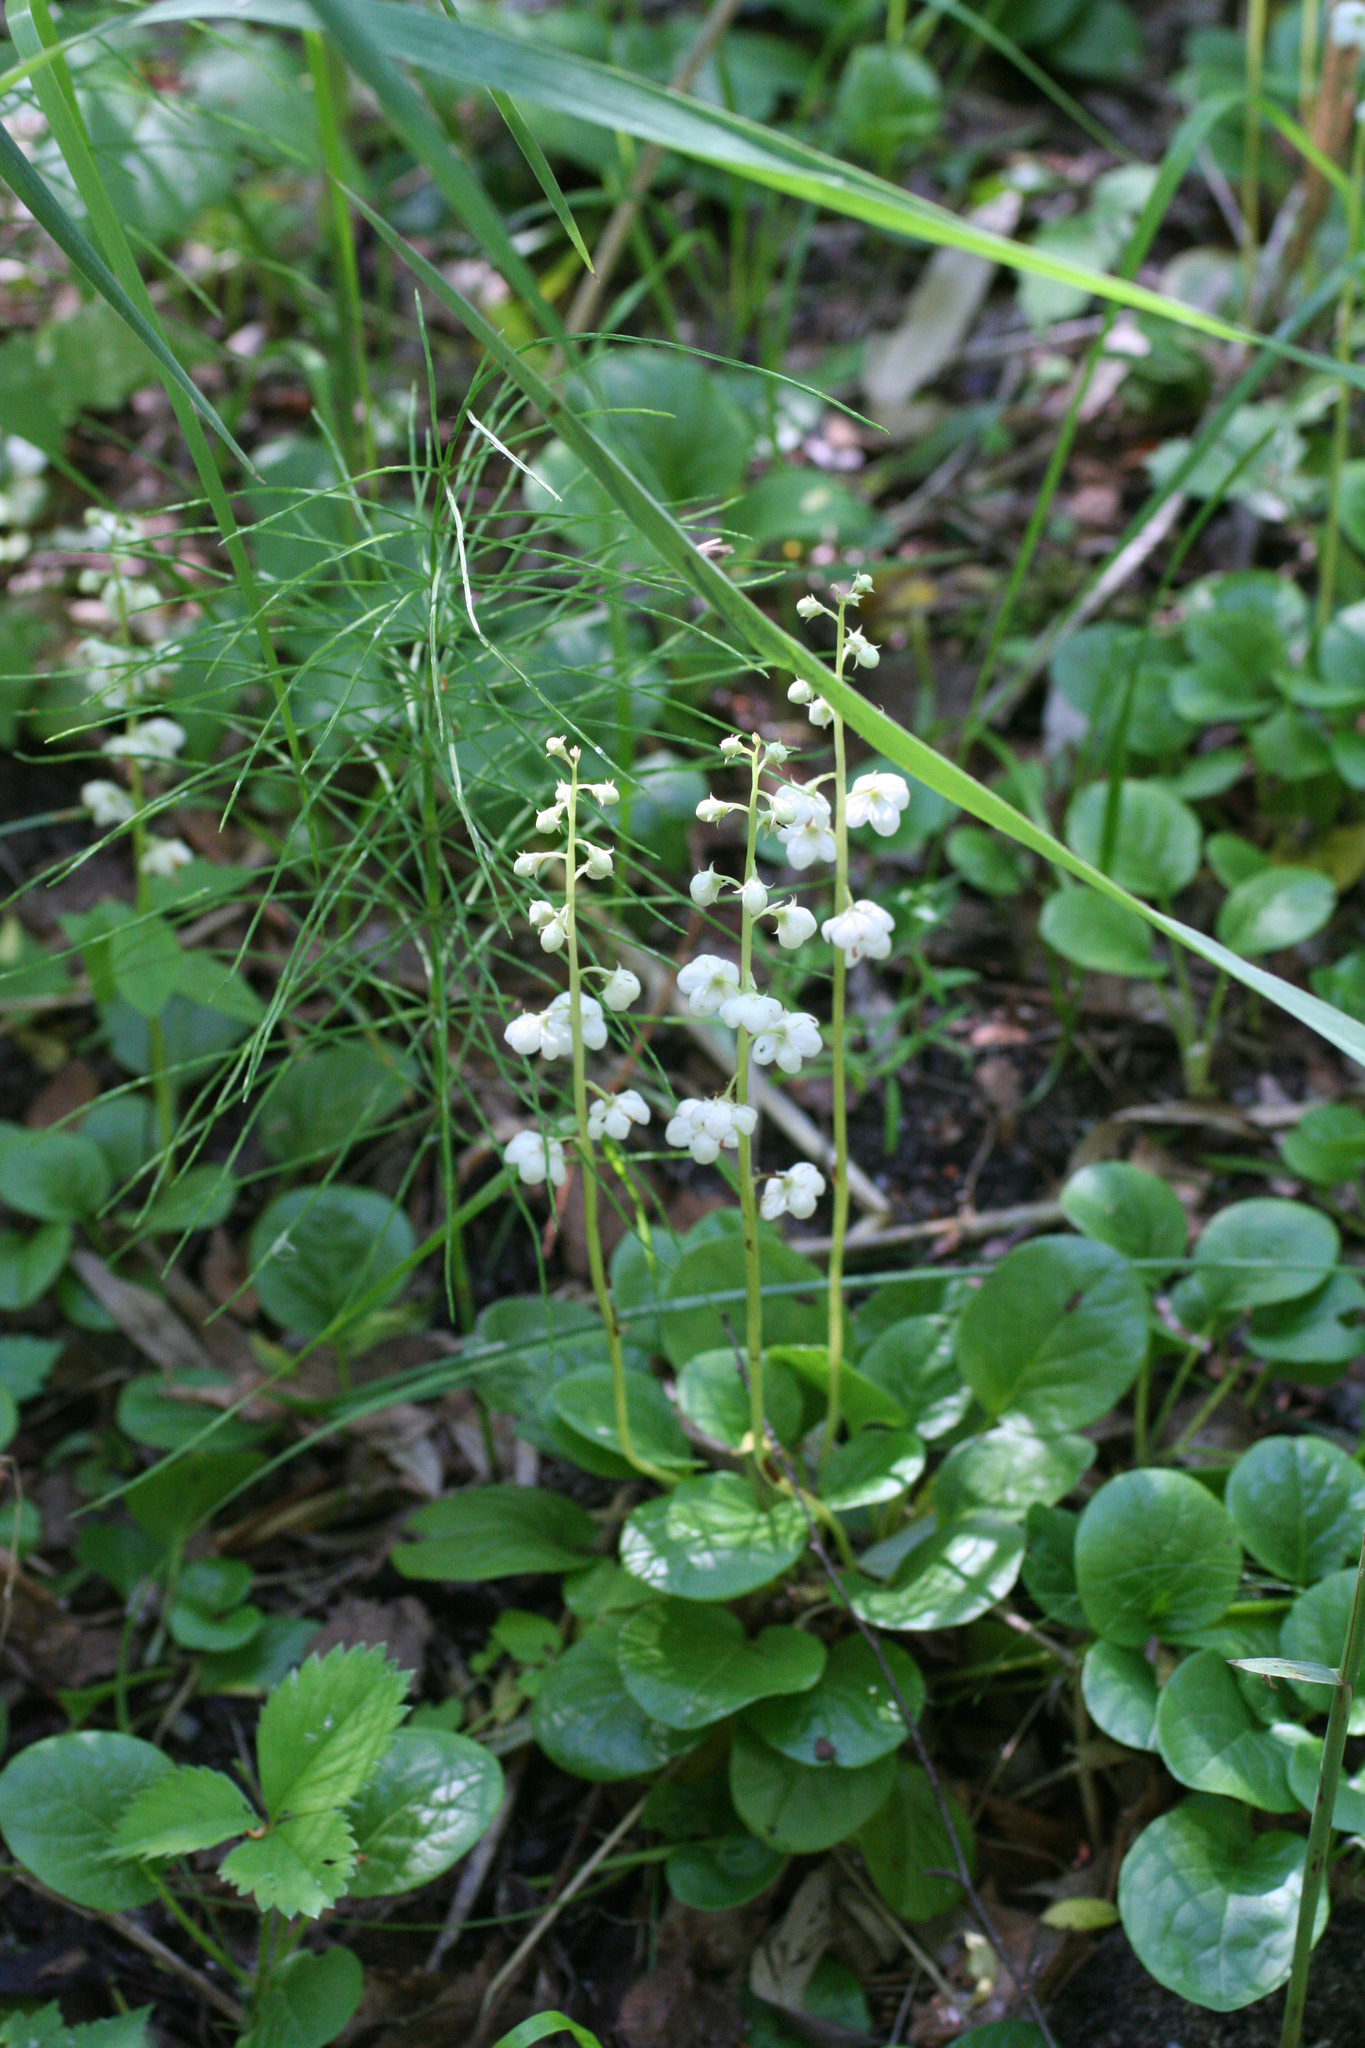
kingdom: Plantae
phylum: Tracheophyta
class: Magnoliopsida
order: Ericales
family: Ericaceae
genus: Pyrola
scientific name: Pyrola rotundifolia
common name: Round-leaved wintergreen
